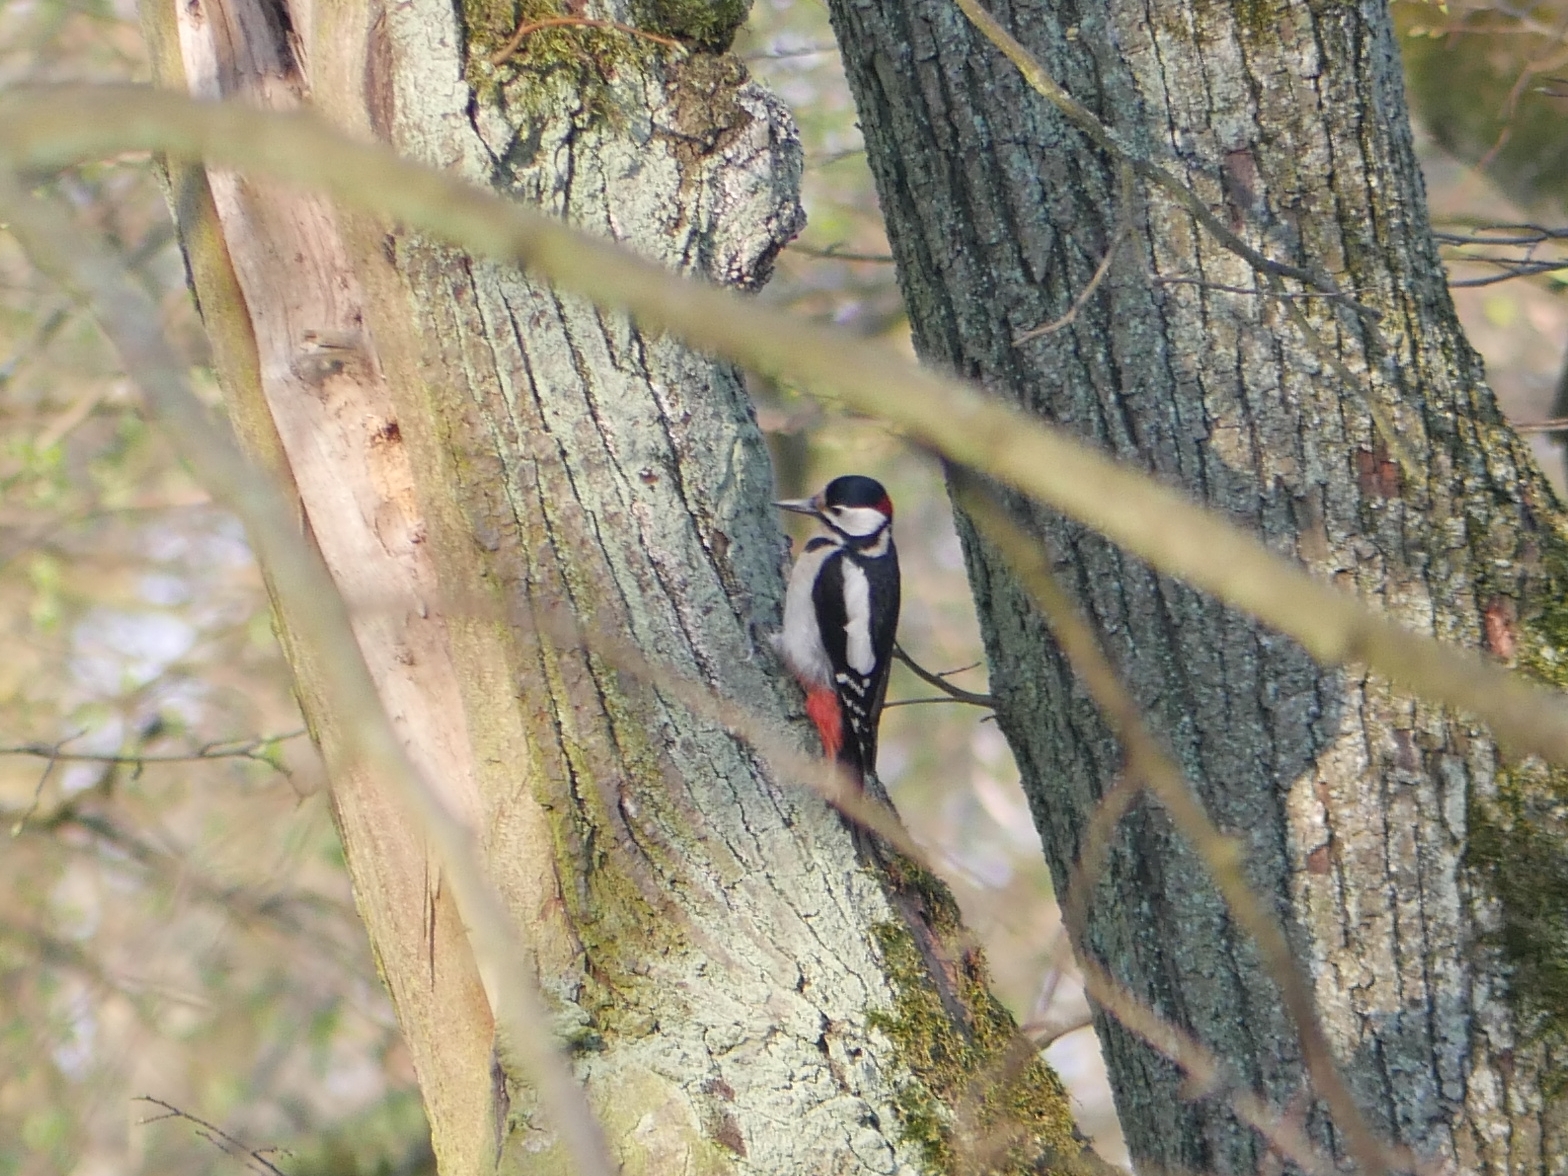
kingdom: Animalia
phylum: Chordata
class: Aves
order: Piciformes
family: Picidae
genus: Dendrocopos
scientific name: Dendrocopos major
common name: Great spotted woodpecker
